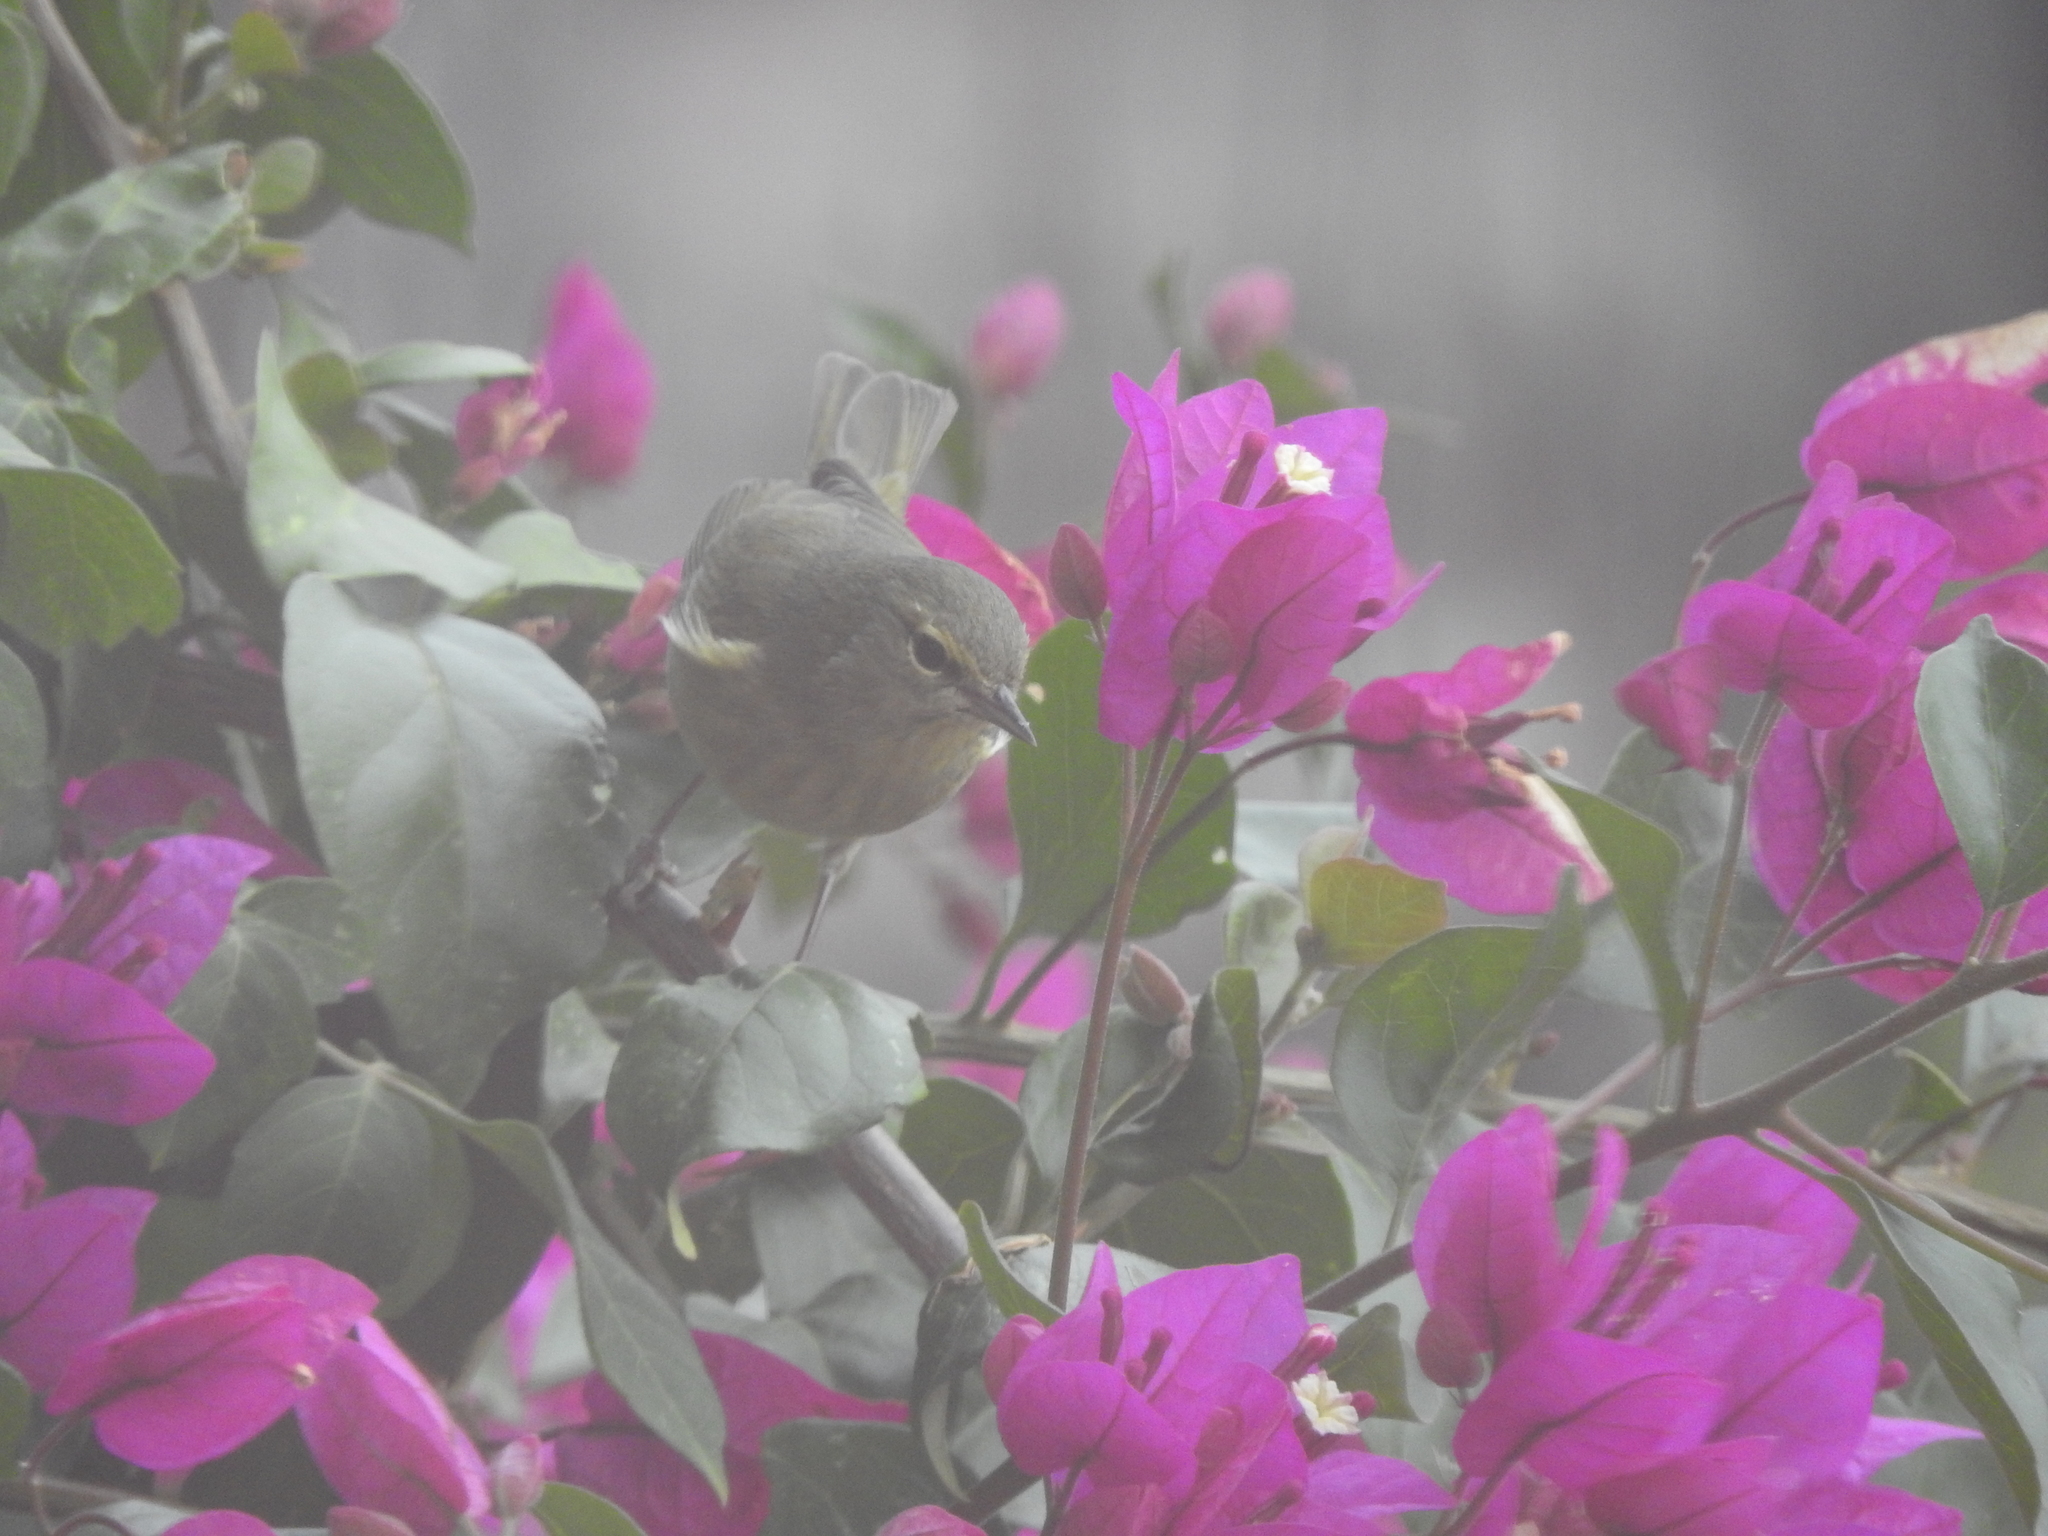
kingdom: Animalia
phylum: Chordata
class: Aves
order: Passeriformes
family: Parulidae
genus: Leiothlypis
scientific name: Leiothlypis celata
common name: Orange-crowned warbler
